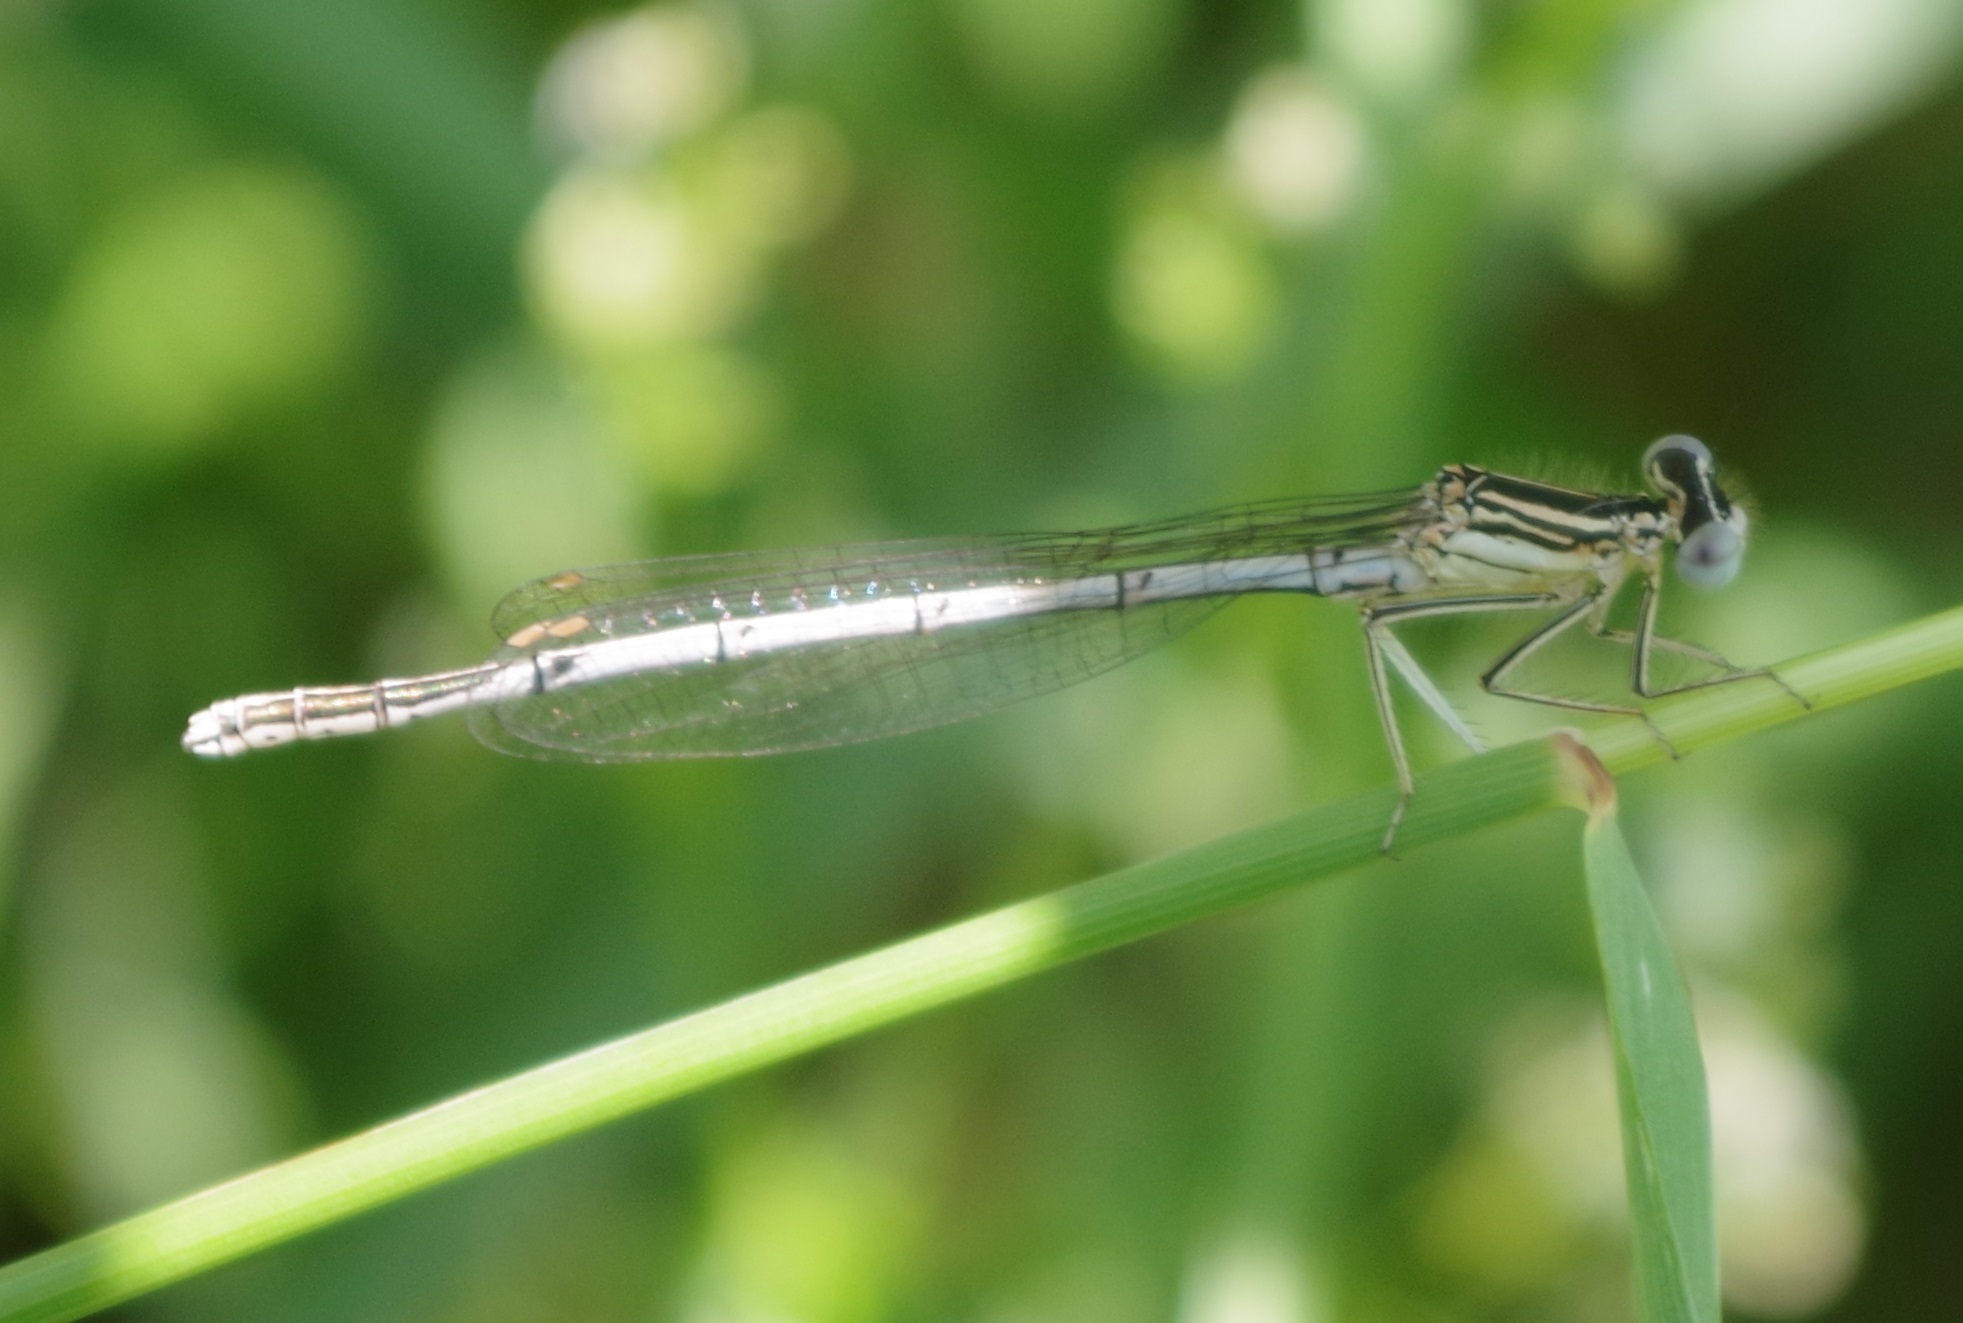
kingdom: Animalia
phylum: Arthropoda
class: Insecta
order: Odonata
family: Platycnemididae
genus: Platycnemis
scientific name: Platycnemis pennipes
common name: White-legged damselfly
